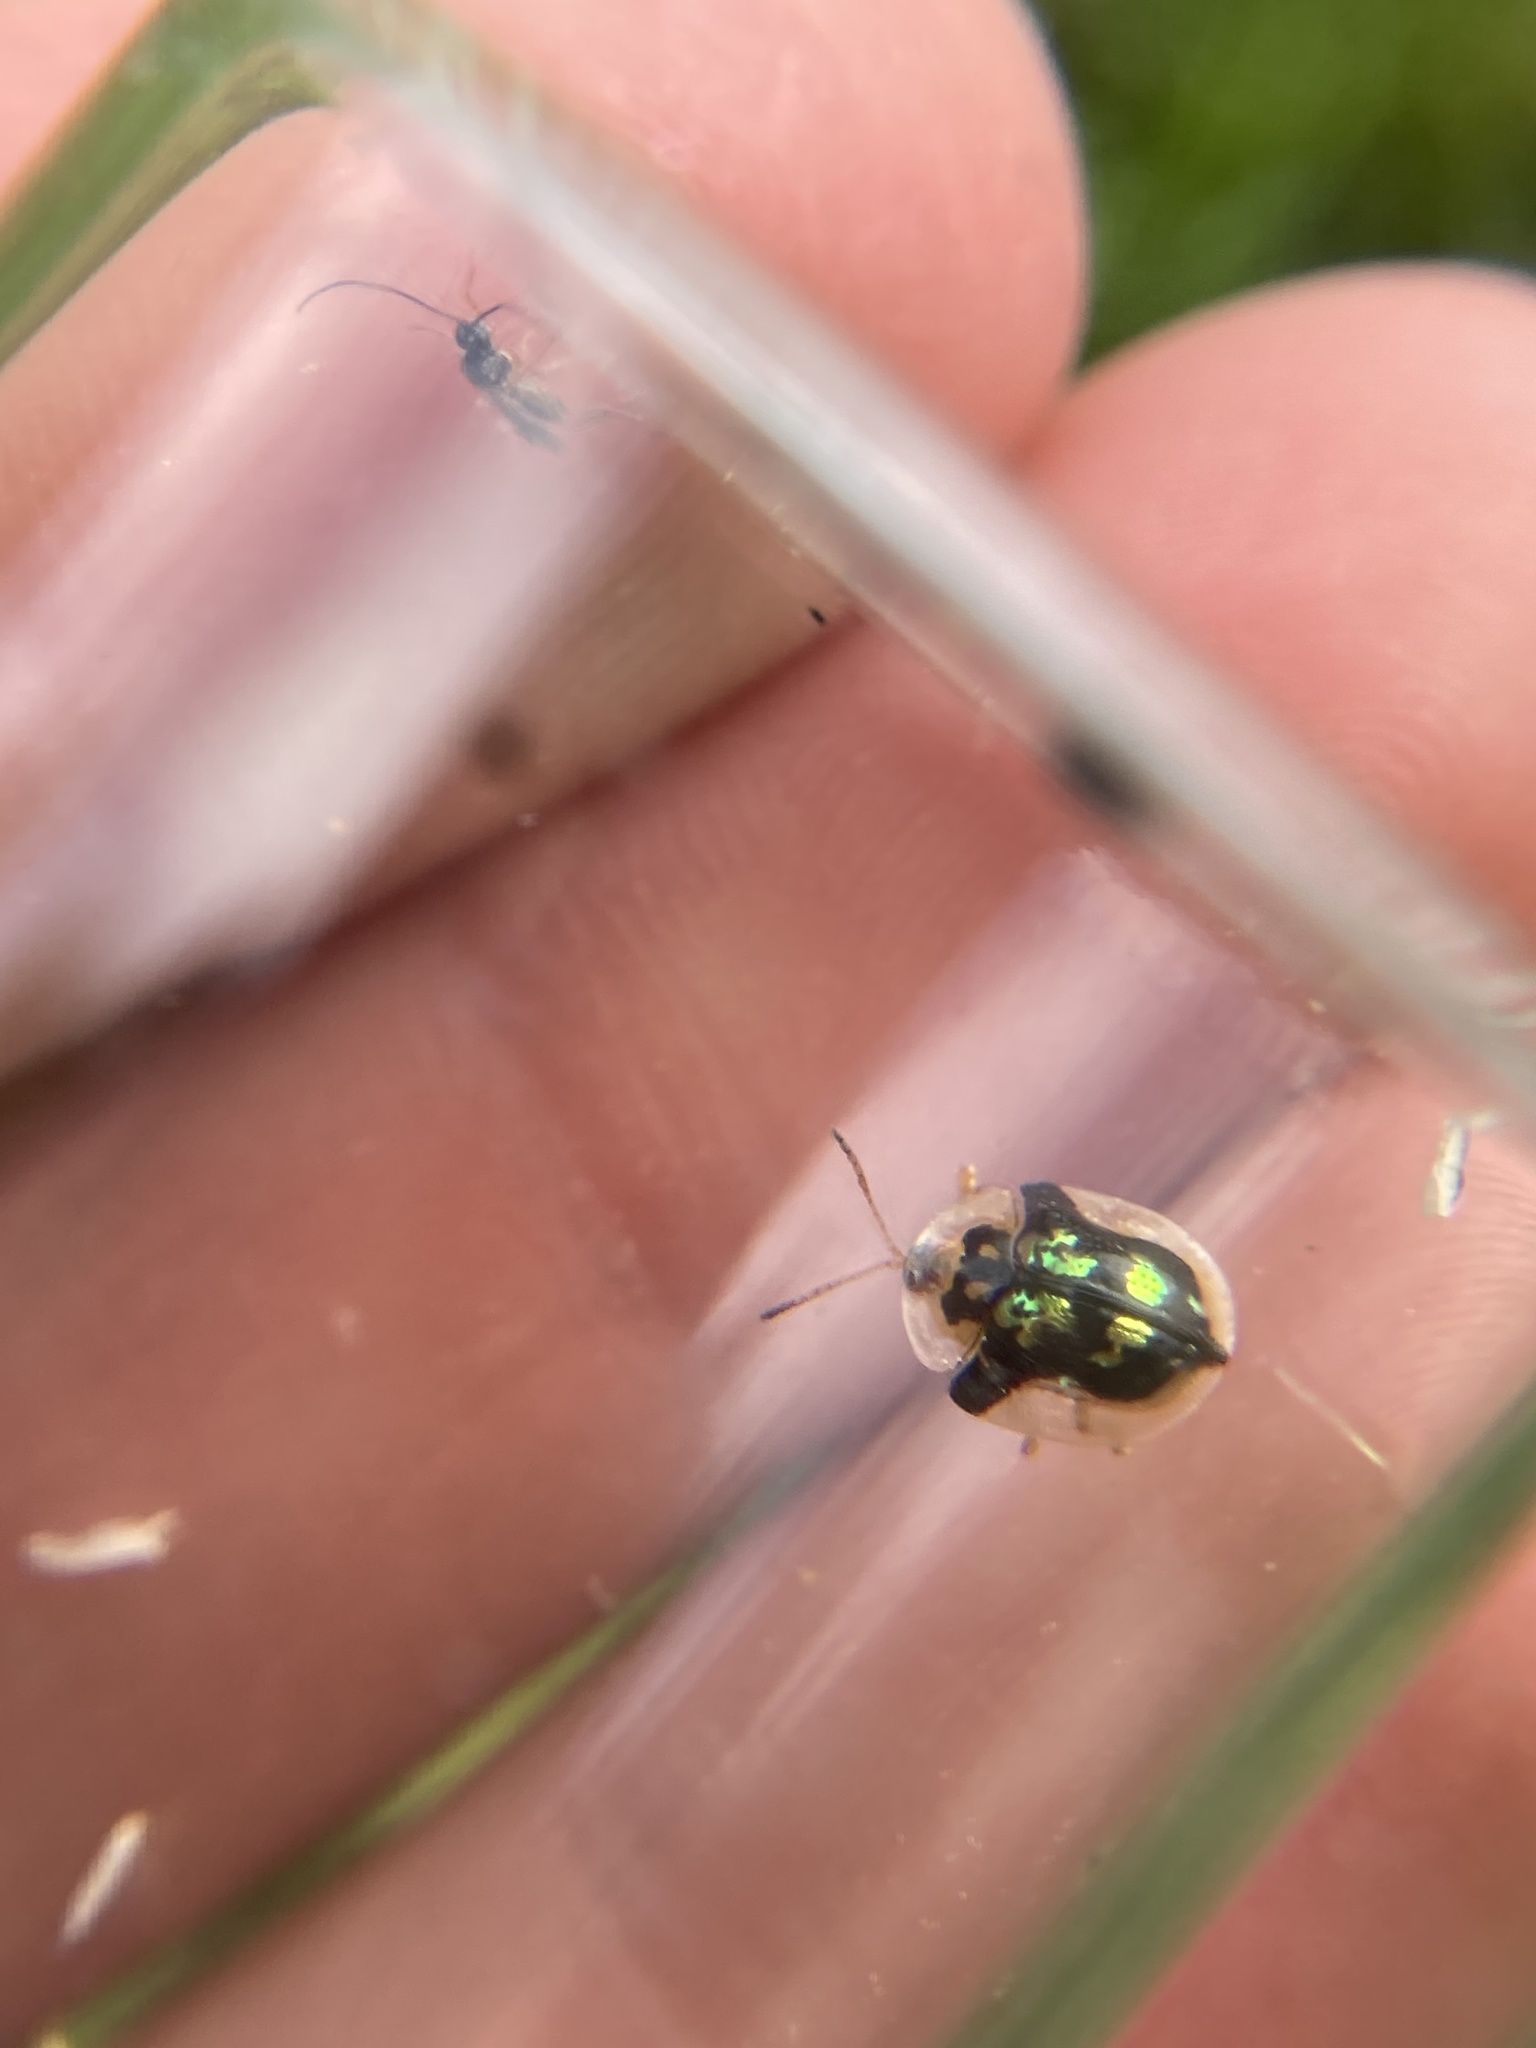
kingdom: Animalia
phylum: Arthropoda
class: Insecta
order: Coleoptera
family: Chrysomelidae
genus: Deloyala
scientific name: Deloyala guttata
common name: Mottled tortoise beetle
